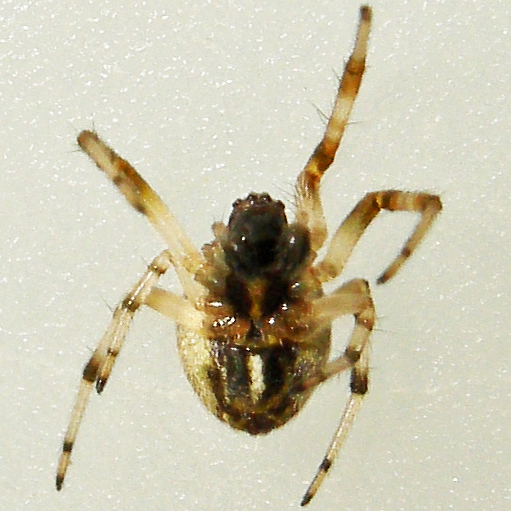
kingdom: Animalia
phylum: Arthropoda
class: Arachnida
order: Araneae
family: Araneidae
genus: Metepeira
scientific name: Metepeira labyrinthea
